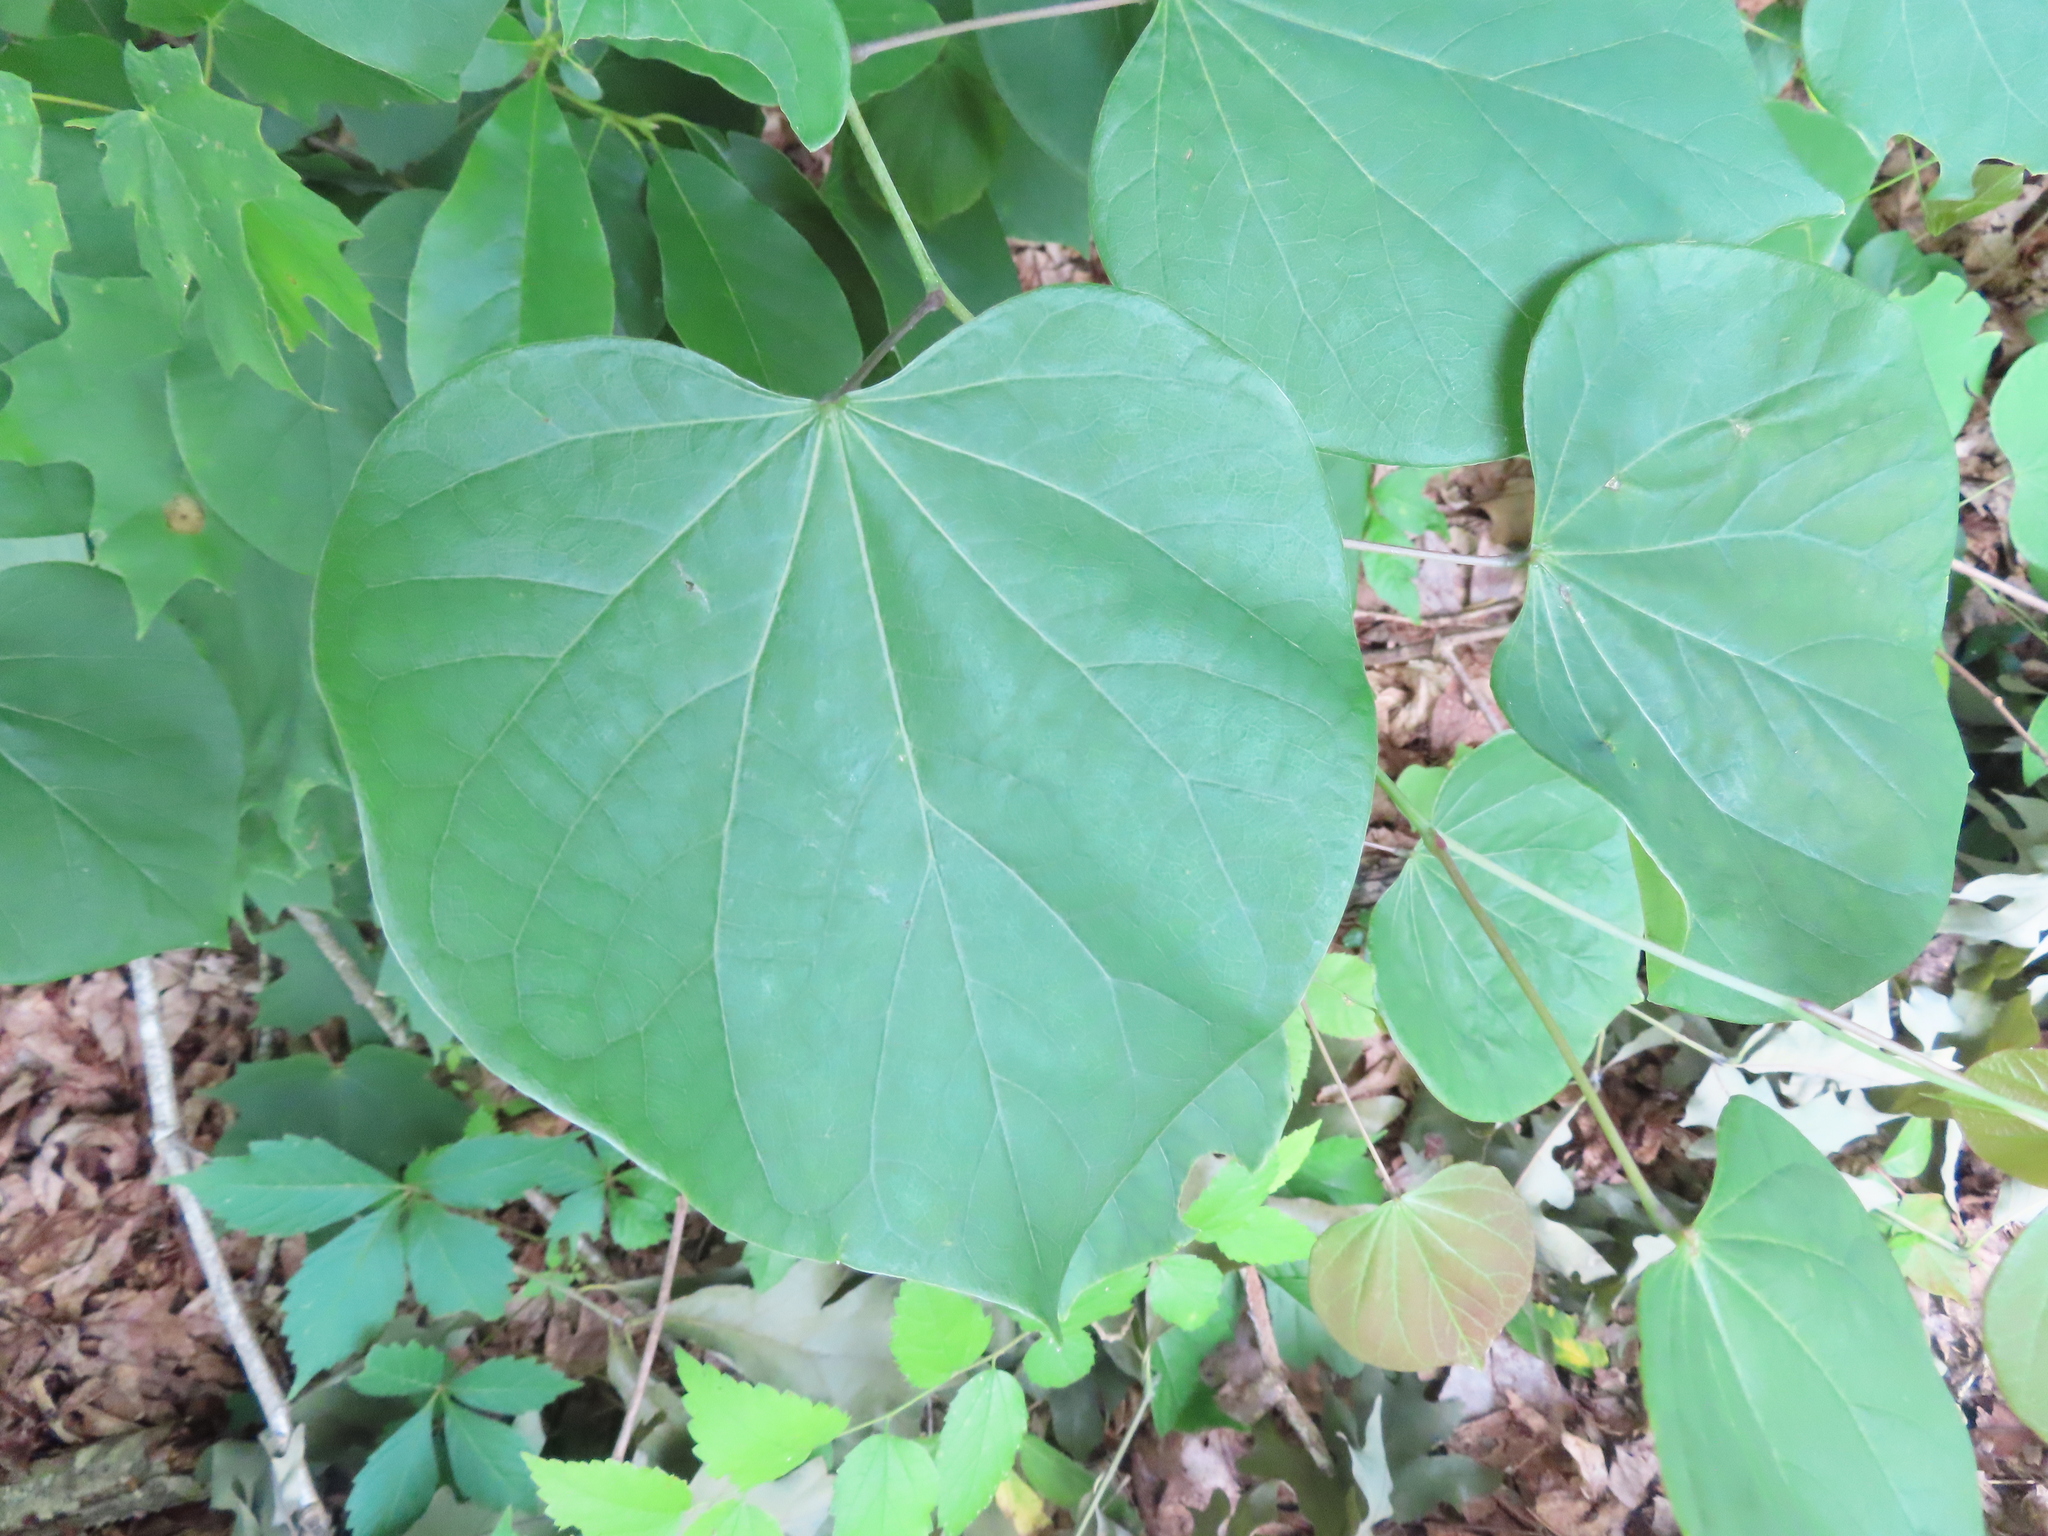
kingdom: Plantae
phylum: Tracheophyta
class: Magnoliopsida
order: Fabales
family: Fabaceae
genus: Cercis
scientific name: Cercis canadensis
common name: Eastern redbud
